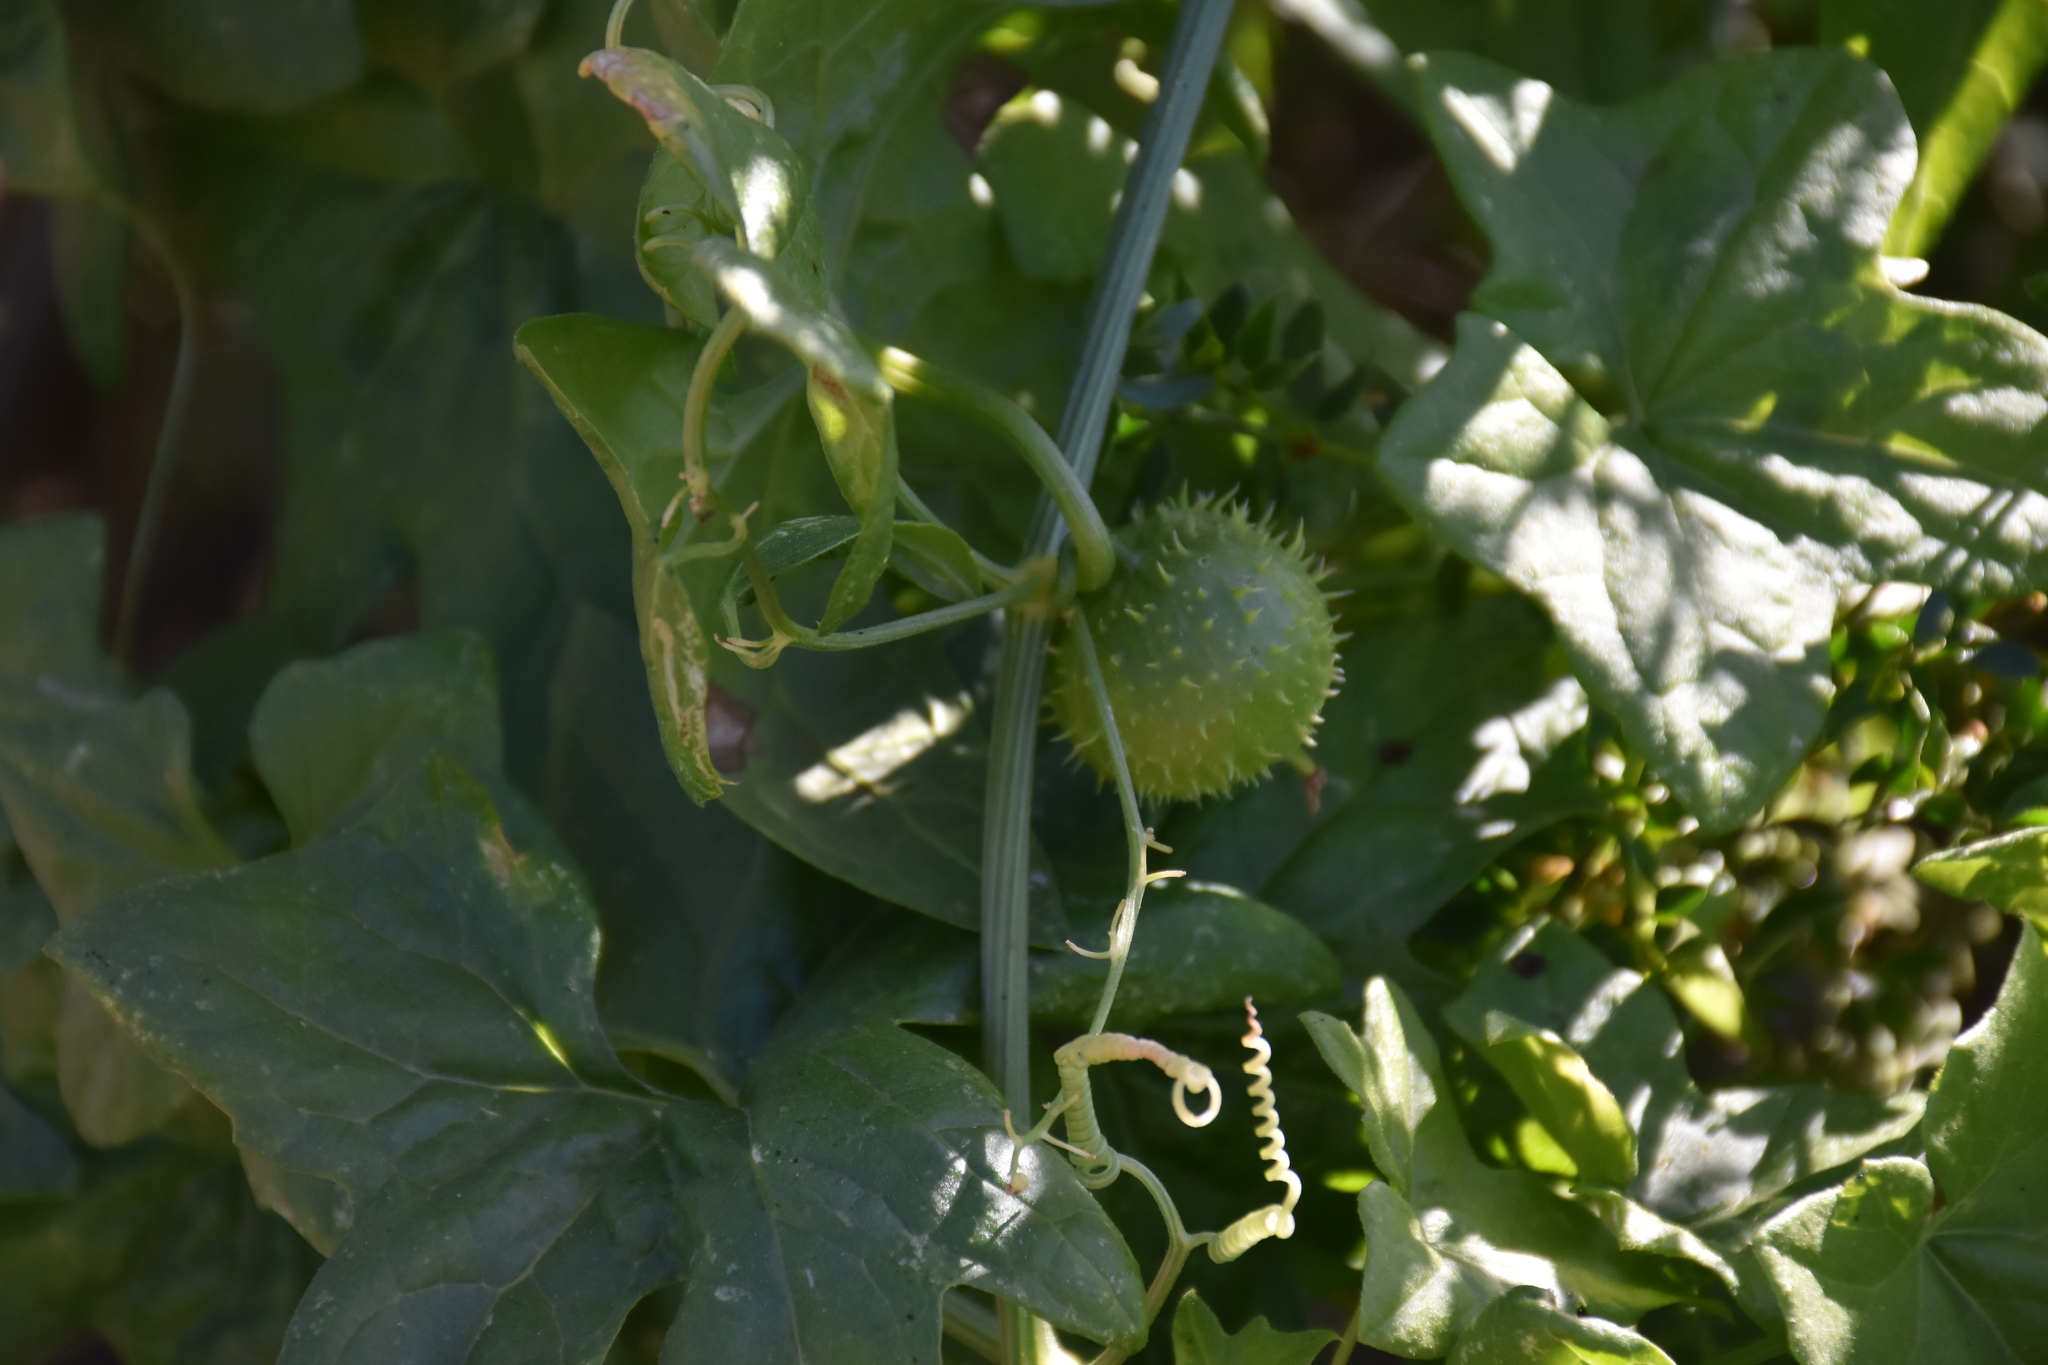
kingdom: Plantae
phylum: Tracheophyta
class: Magnoliopsida
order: Cucurbitales
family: Cucurbitaceae
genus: Marah
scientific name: Marah gilensis
